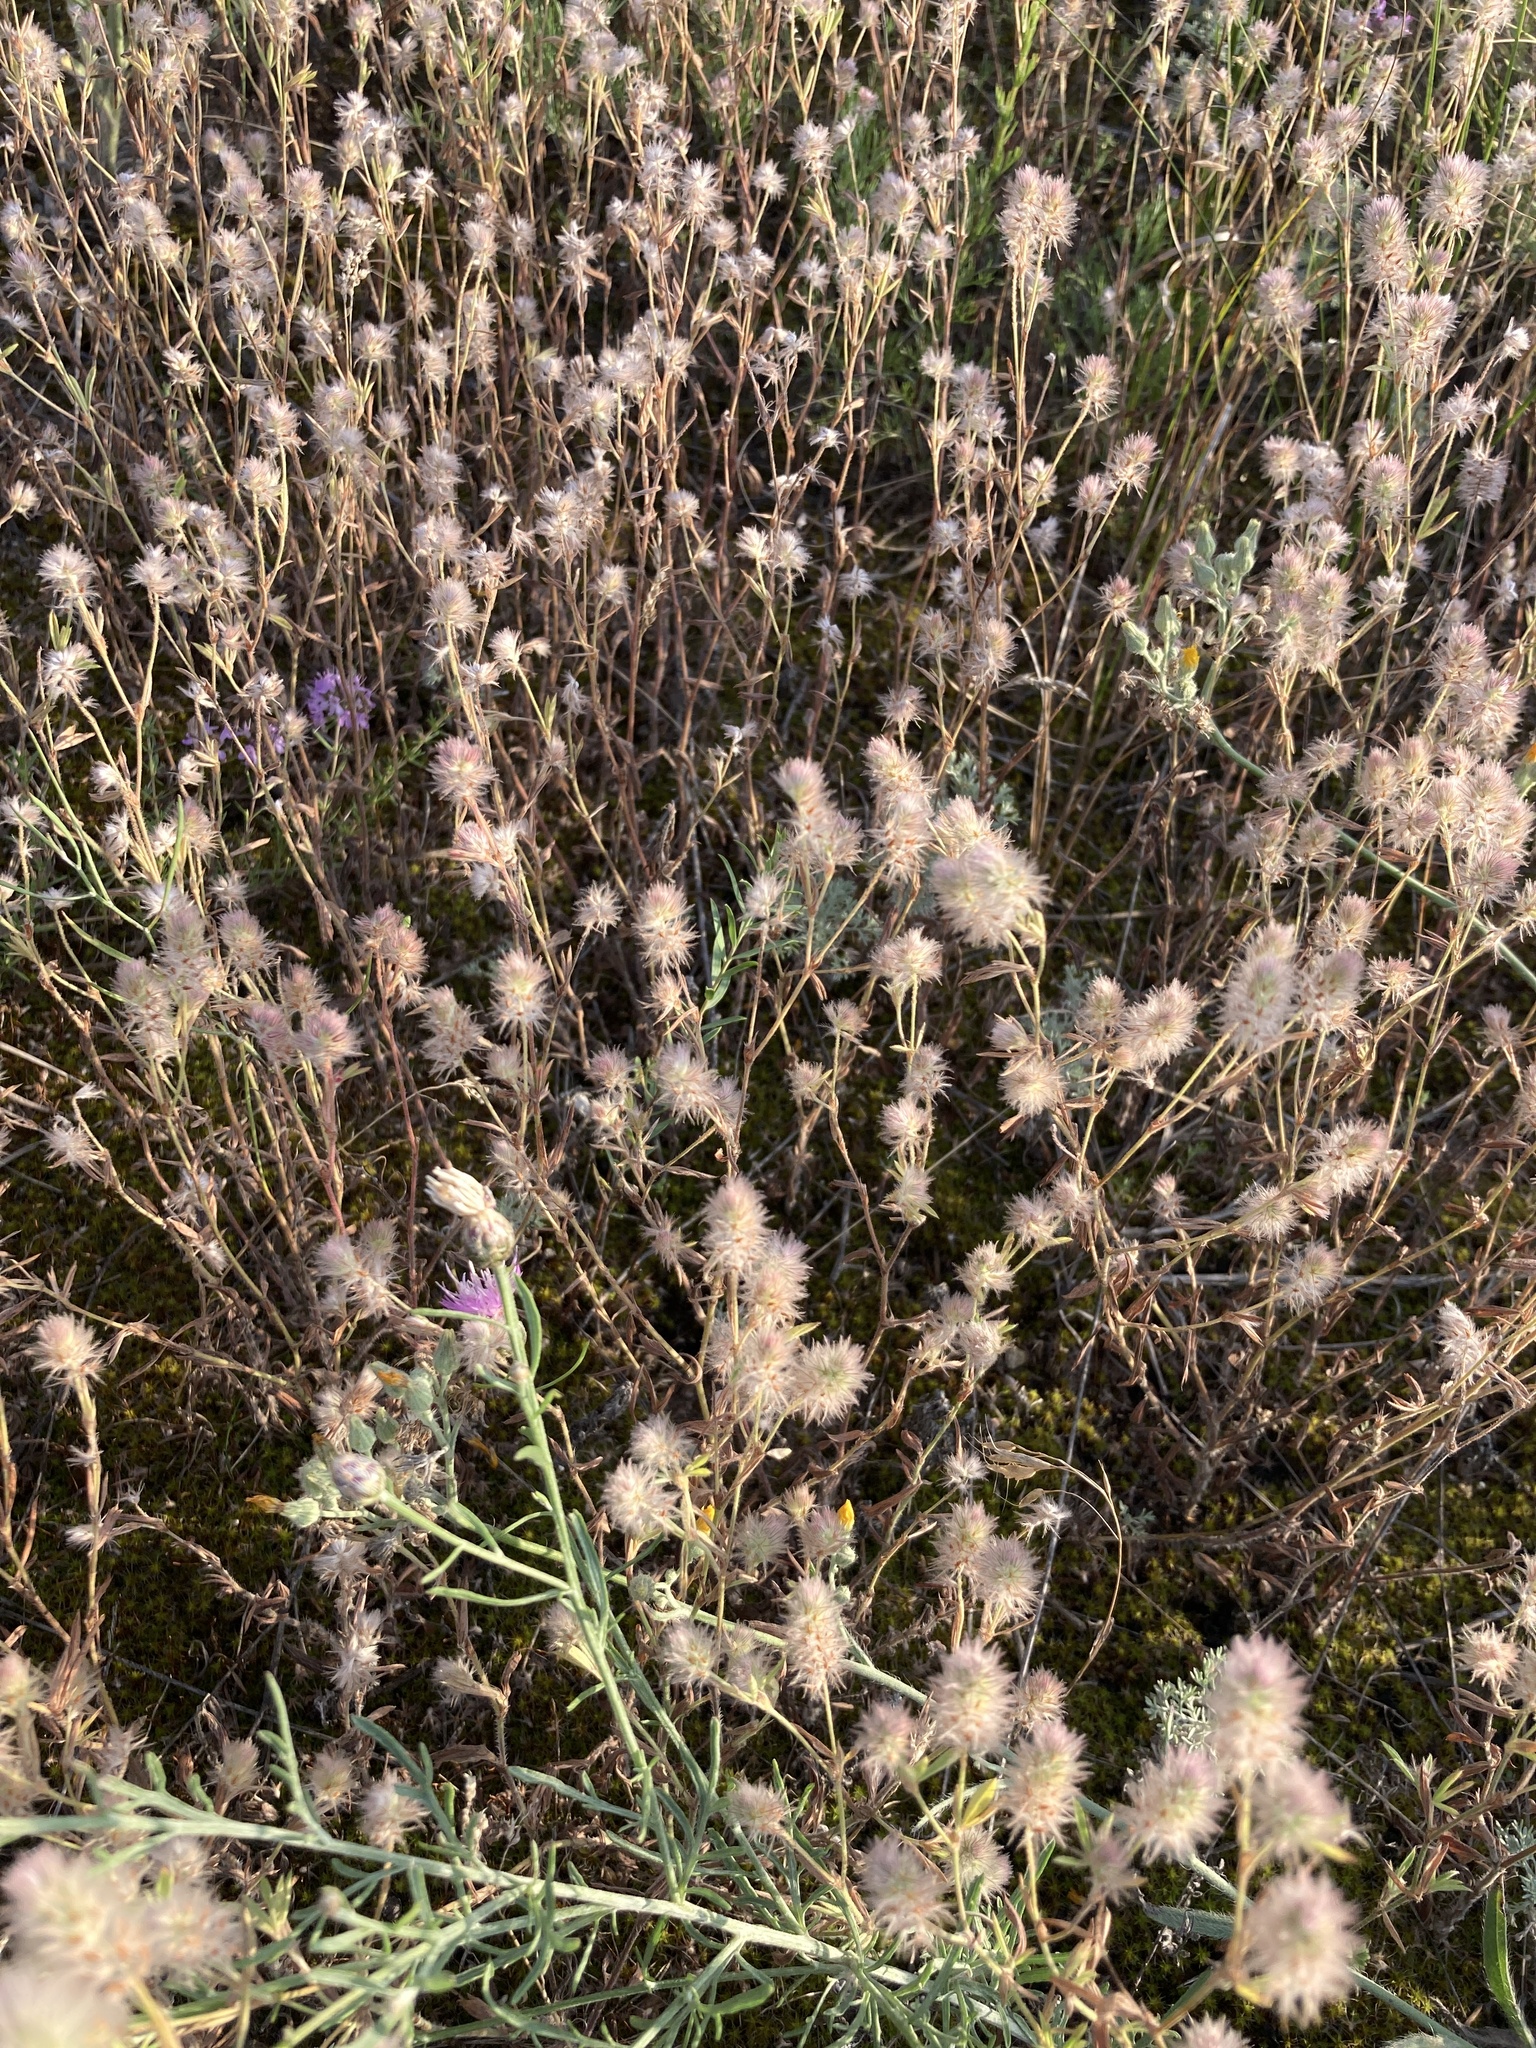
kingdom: Plantae
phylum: Tracheophyta
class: Magnoliopsida
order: Fabales
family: Fabaceae
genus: Trifolium
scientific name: Trifolium arvense
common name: Hare's-foot clover
